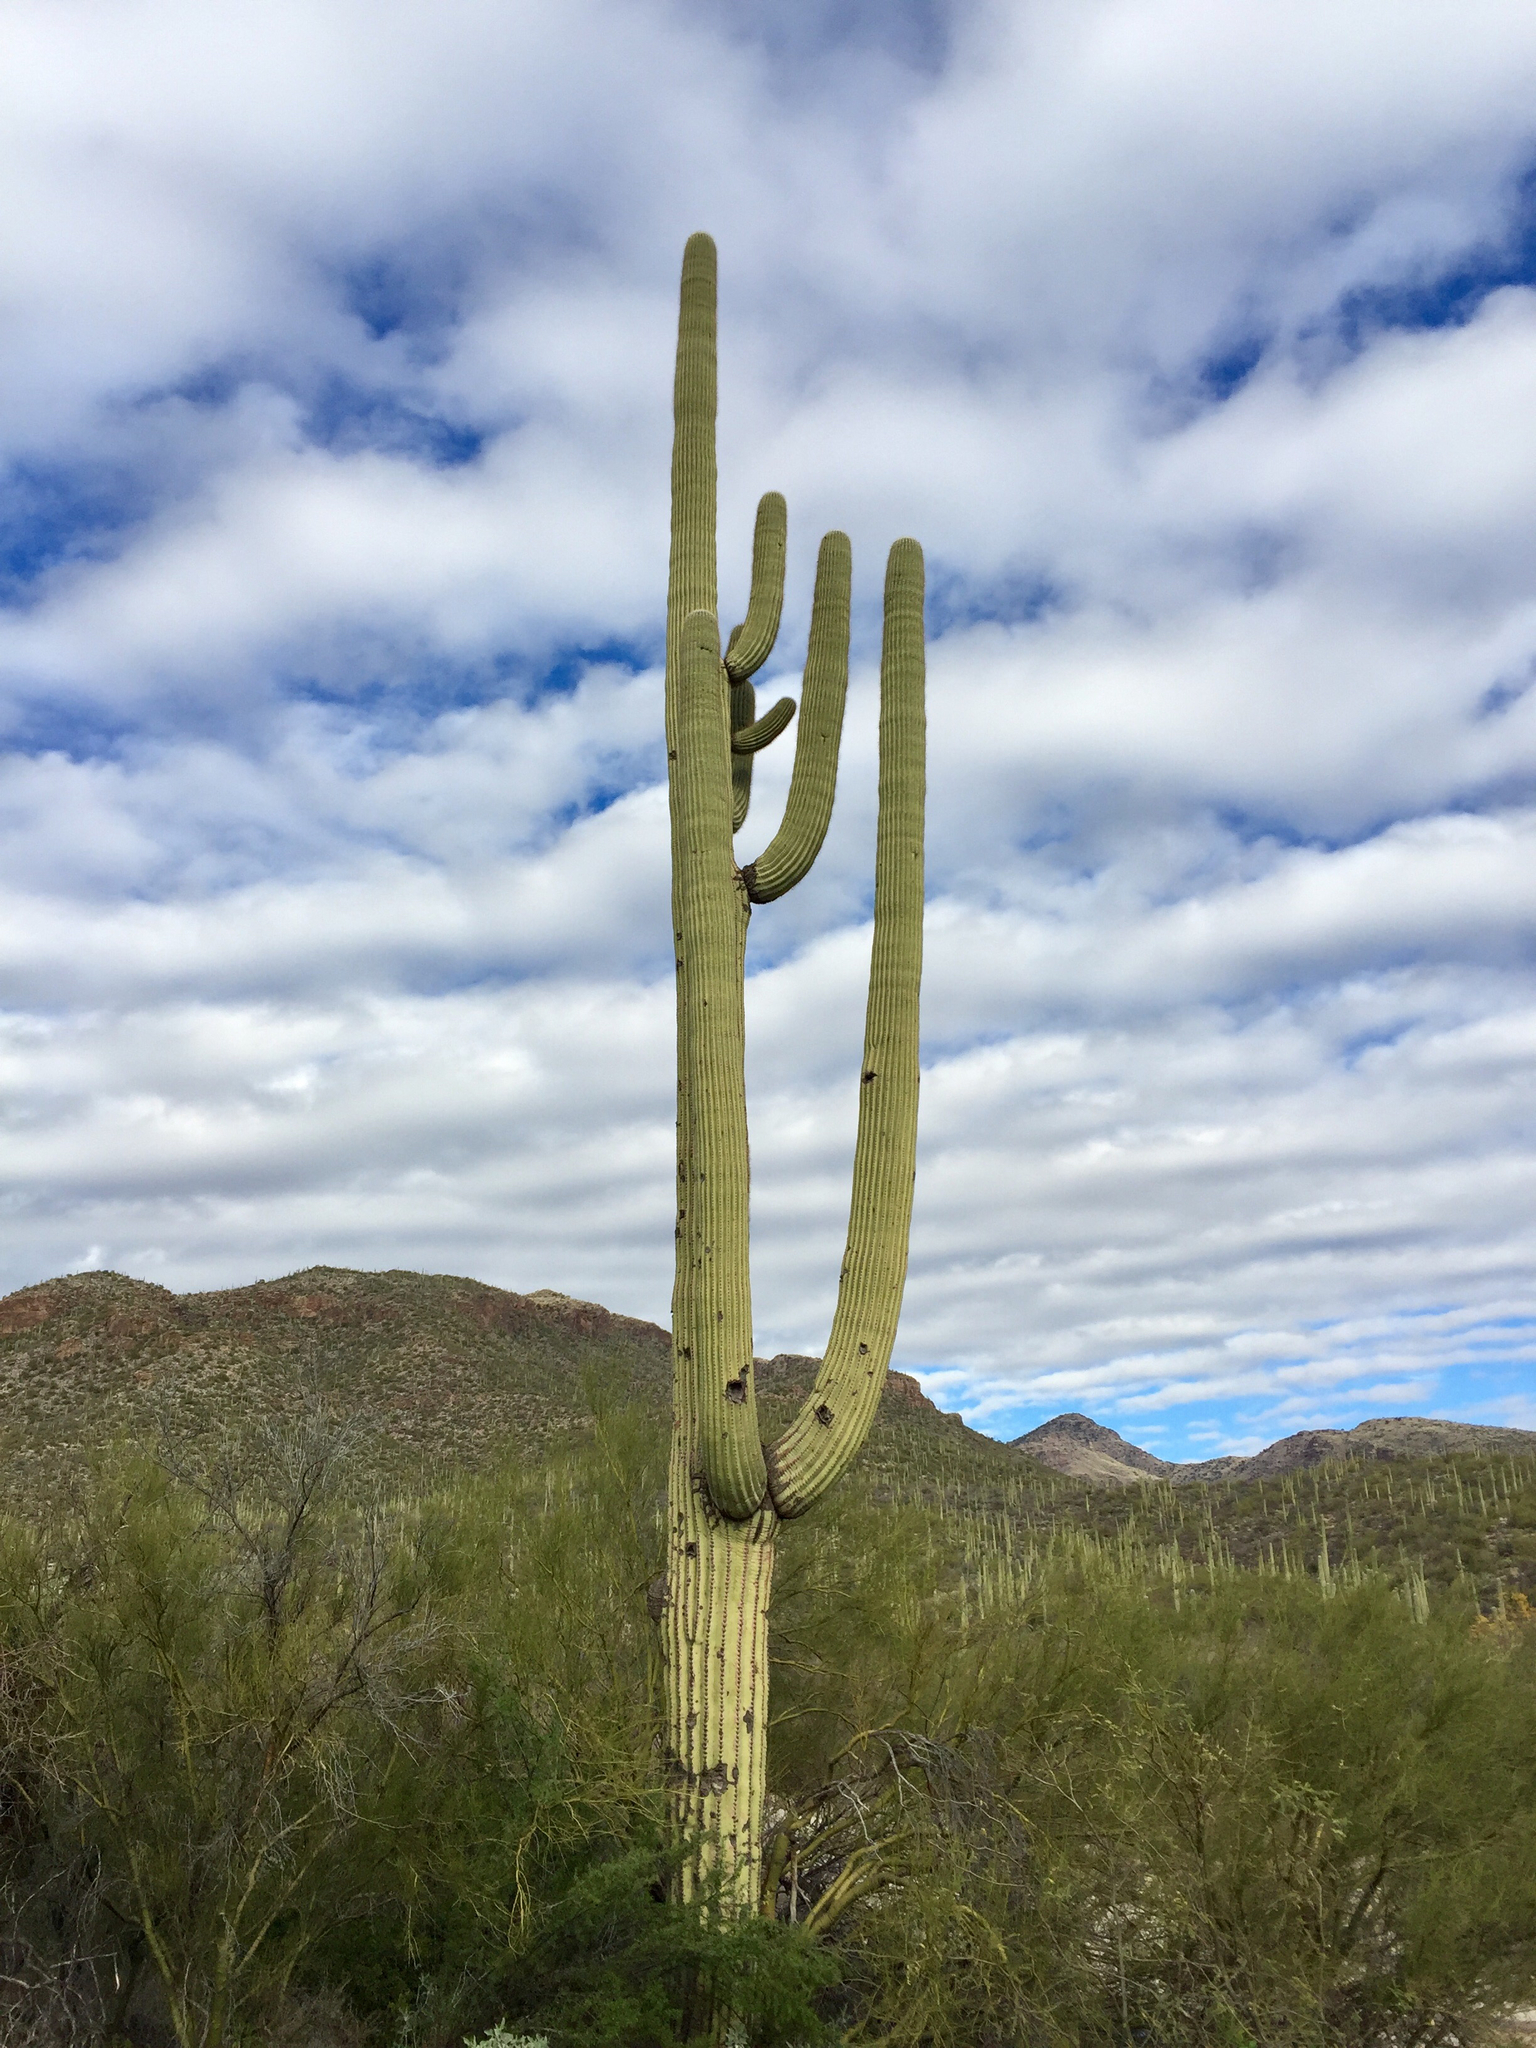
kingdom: Plantae
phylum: Tracheophyta
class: Magnoliopsida
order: Caryophyllales
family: Cactaceae
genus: Carnegiea
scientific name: Carnegiea gigantea
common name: Saguaro
